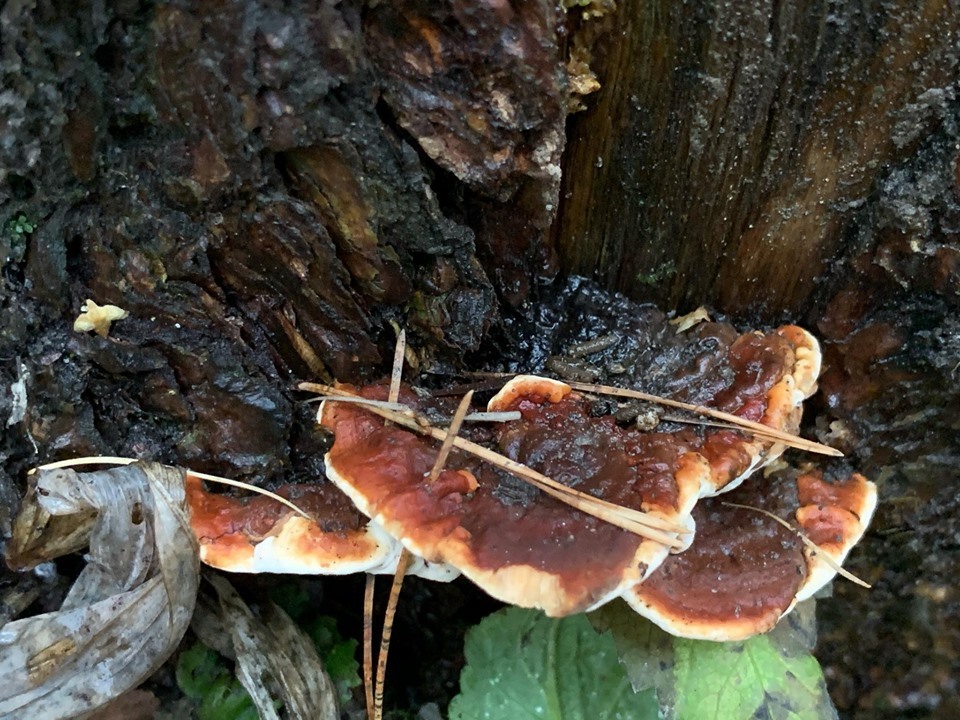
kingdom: Fungi
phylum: Basidiomycota
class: Agaricomycetes
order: Polyporales
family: Fomitopsidaceae
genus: Fomitopsis
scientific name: Fomitopsis pinicola
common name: Red-belted bracket
